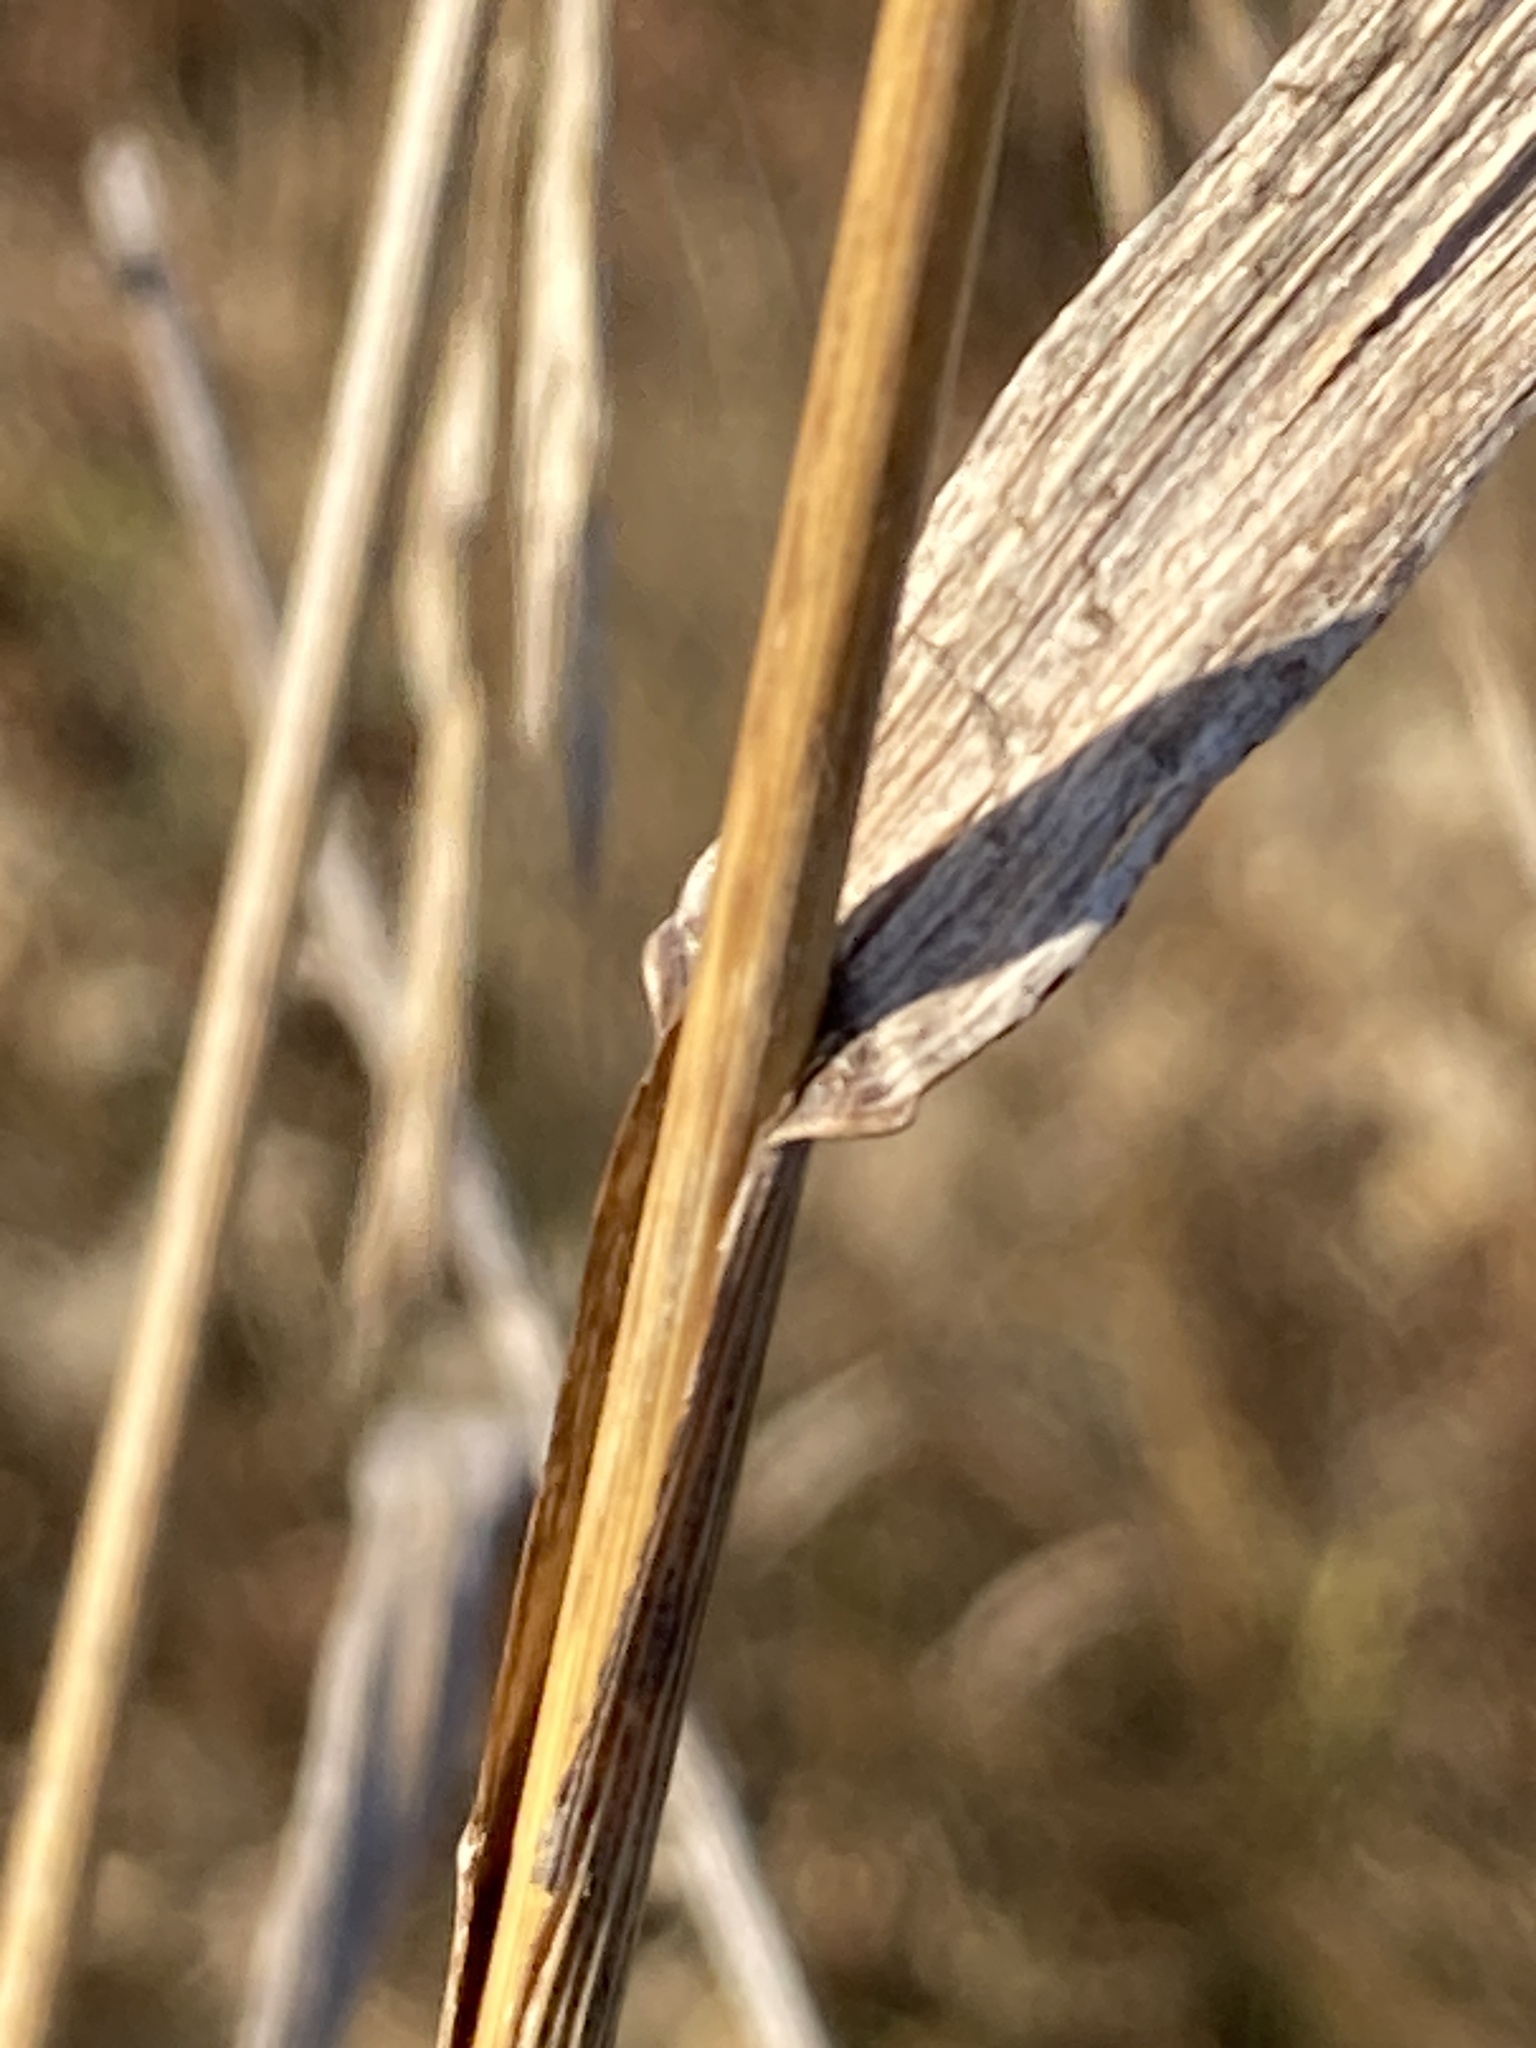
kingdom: Plantae
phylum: Tracheophyta
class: Liliopsida
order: Poales
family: Poaceae
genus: Bromus
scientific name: Bromus inermis
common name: Smooth brome
